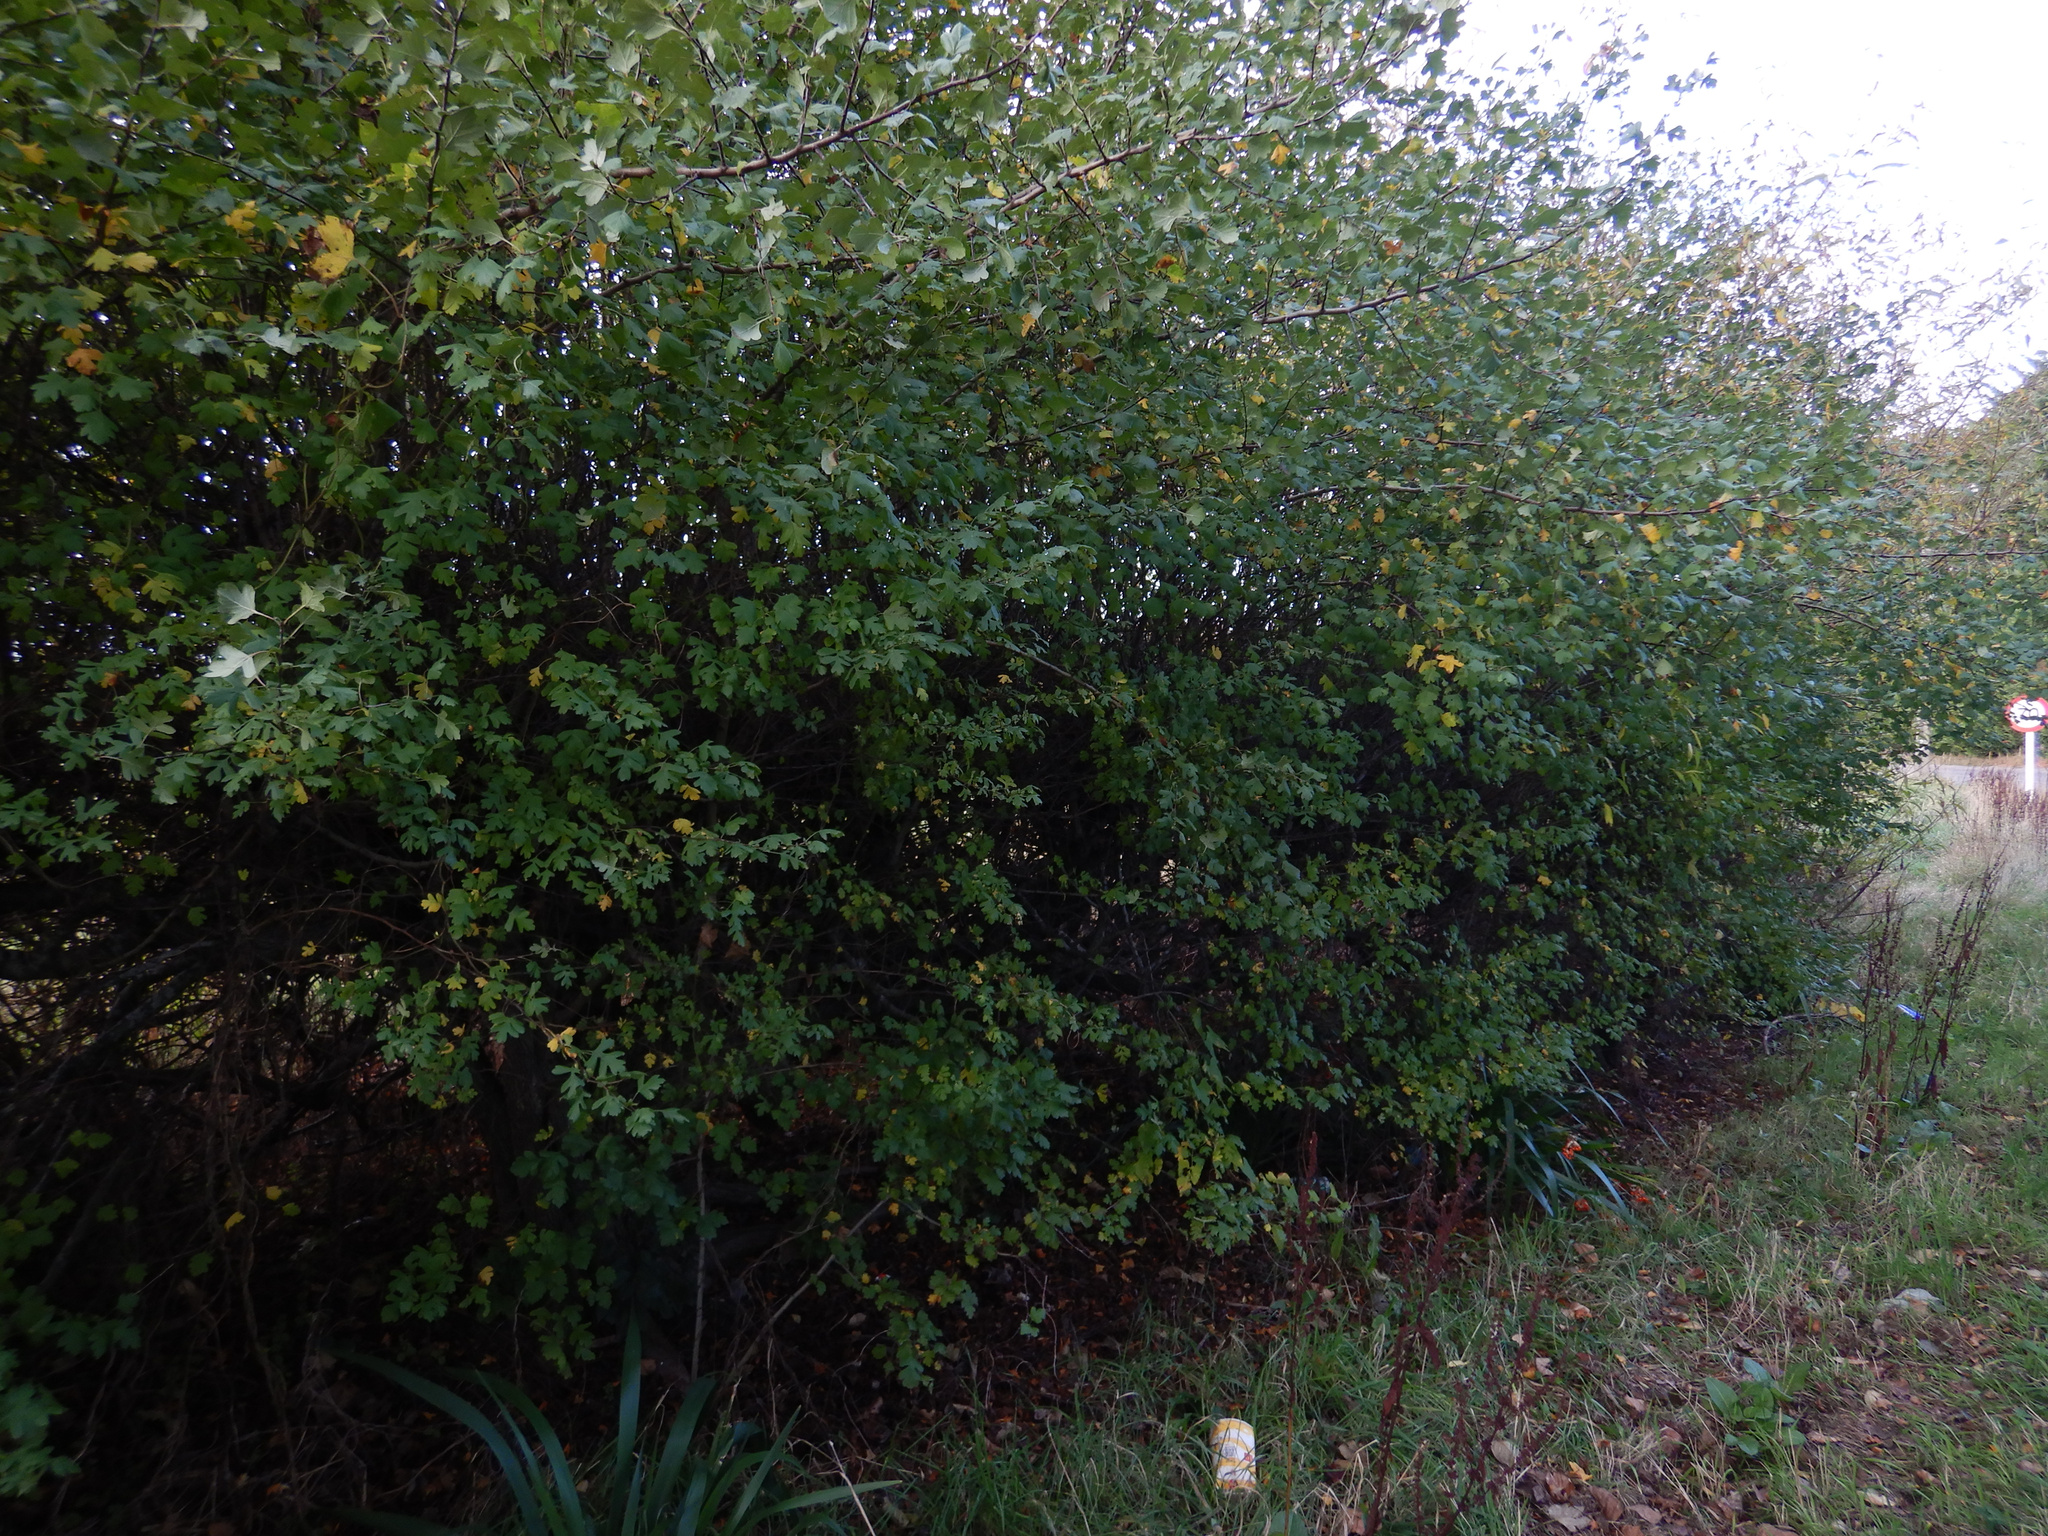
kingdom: Plantae
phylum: Tracheophyta
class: Magnoliopsida
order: Rosales
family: Rosaceae
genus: Crataegus
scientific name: Crataegus monogyna
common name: Hawthorn
